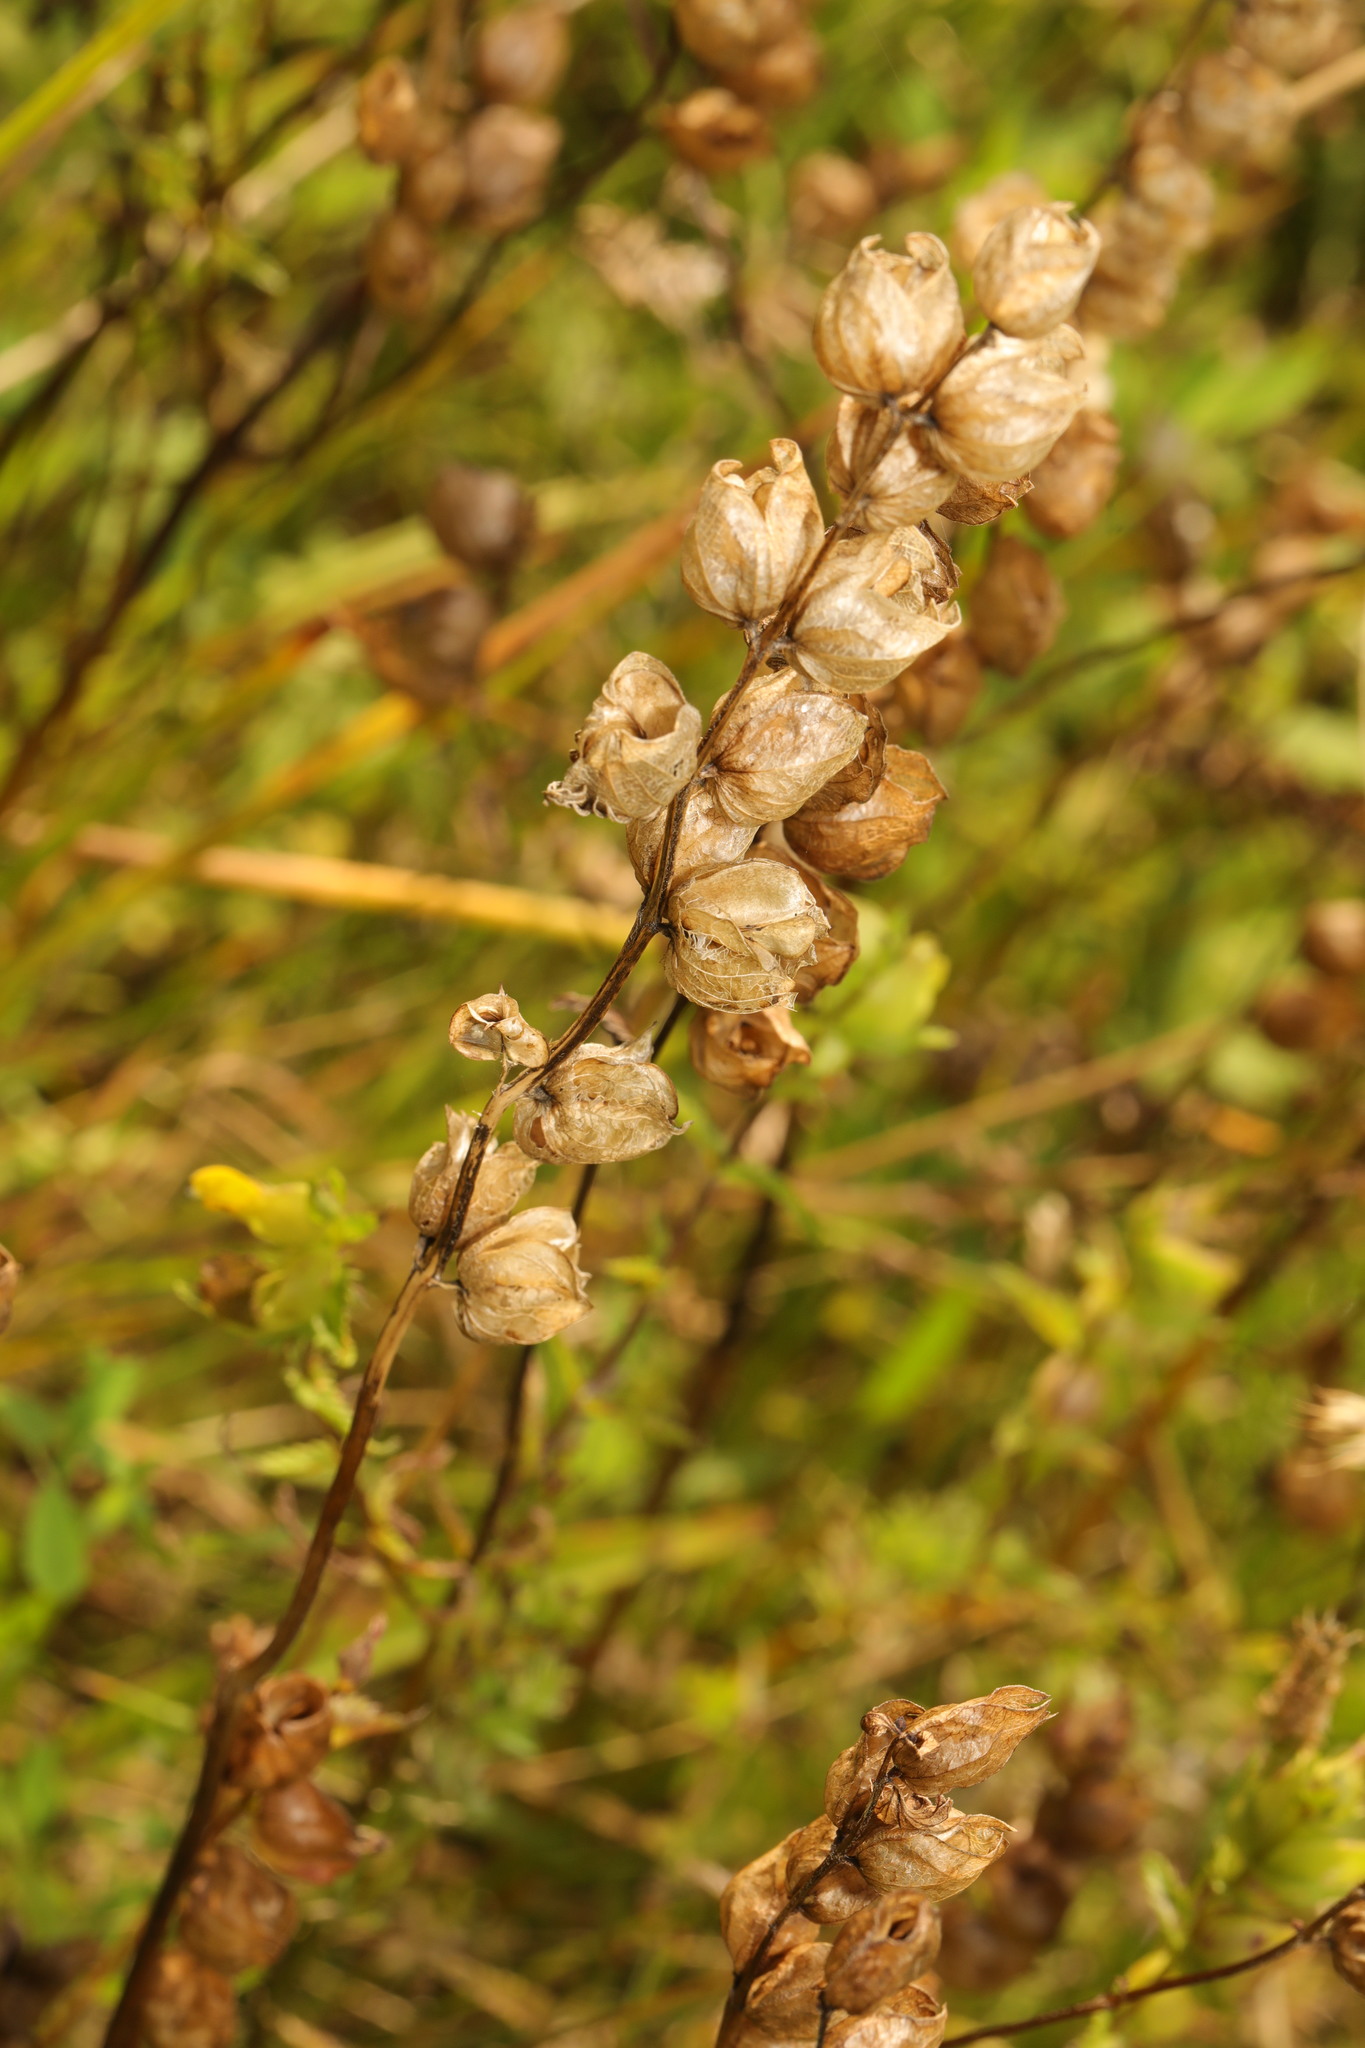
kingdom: Plantae
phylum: Tracheophyta
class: Magnoliopsida
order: Lamiales
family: Orobanchaceae
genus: Rhinanthus
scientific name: Rhinanthus minor
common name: Yellow-rattle
